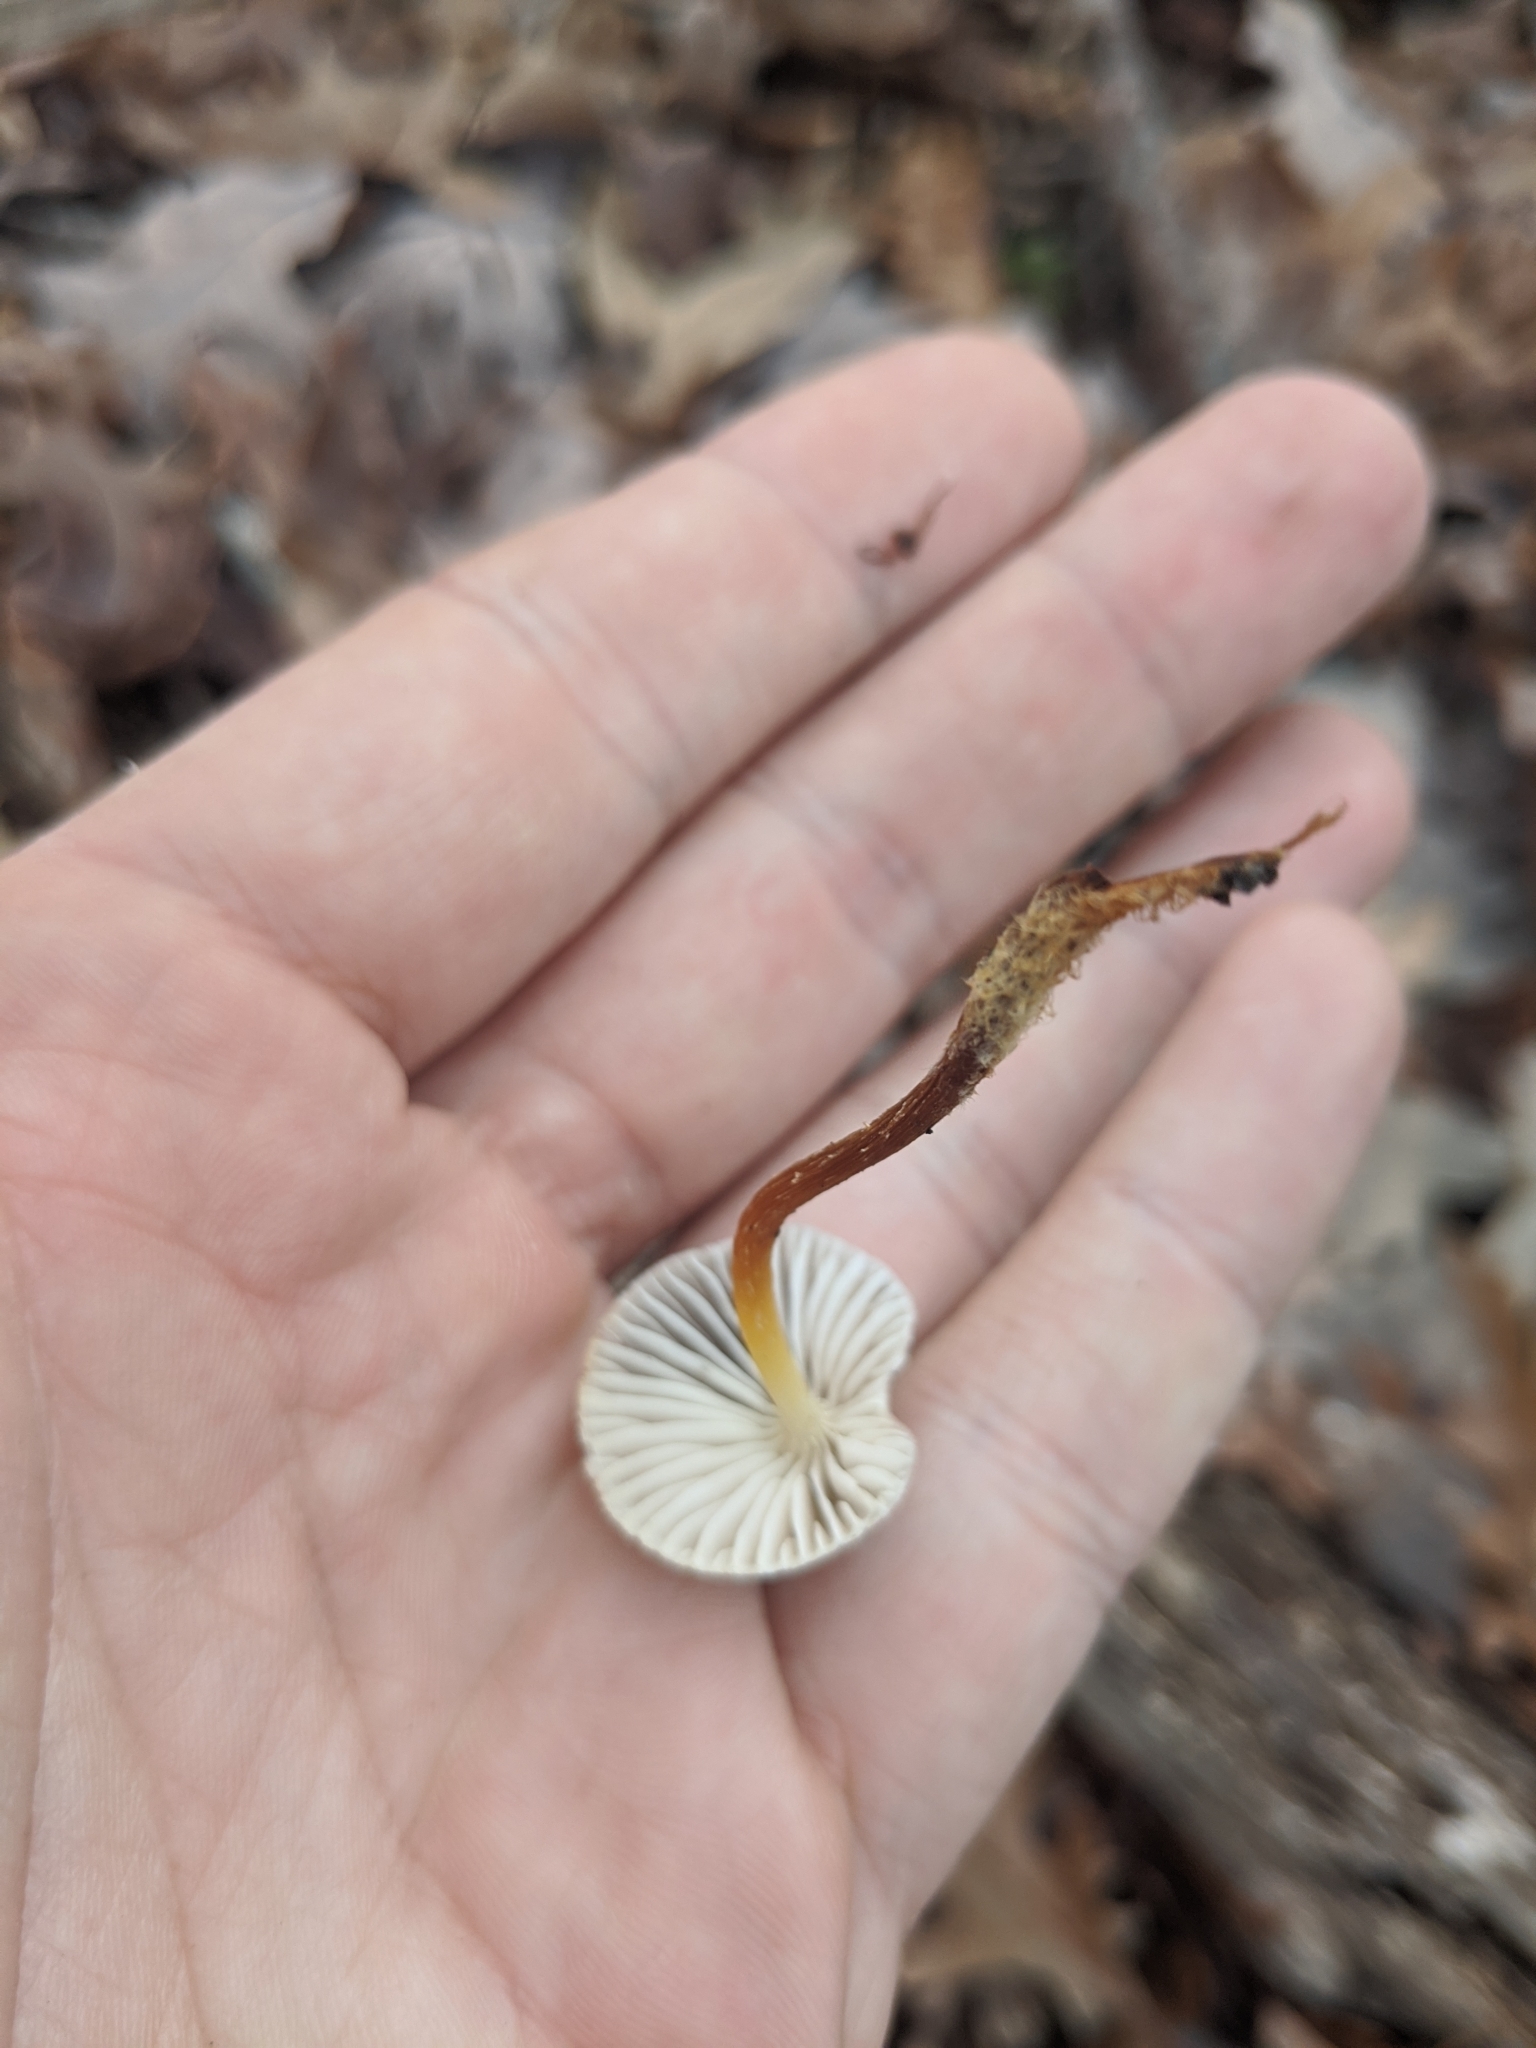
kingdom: Fungi
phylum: Basidiomycota
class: Agaricomycetes
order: Agaricales
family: Mycenaceae
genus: Mycena
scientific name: Mycena inclinata
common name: Clustered bonnet
